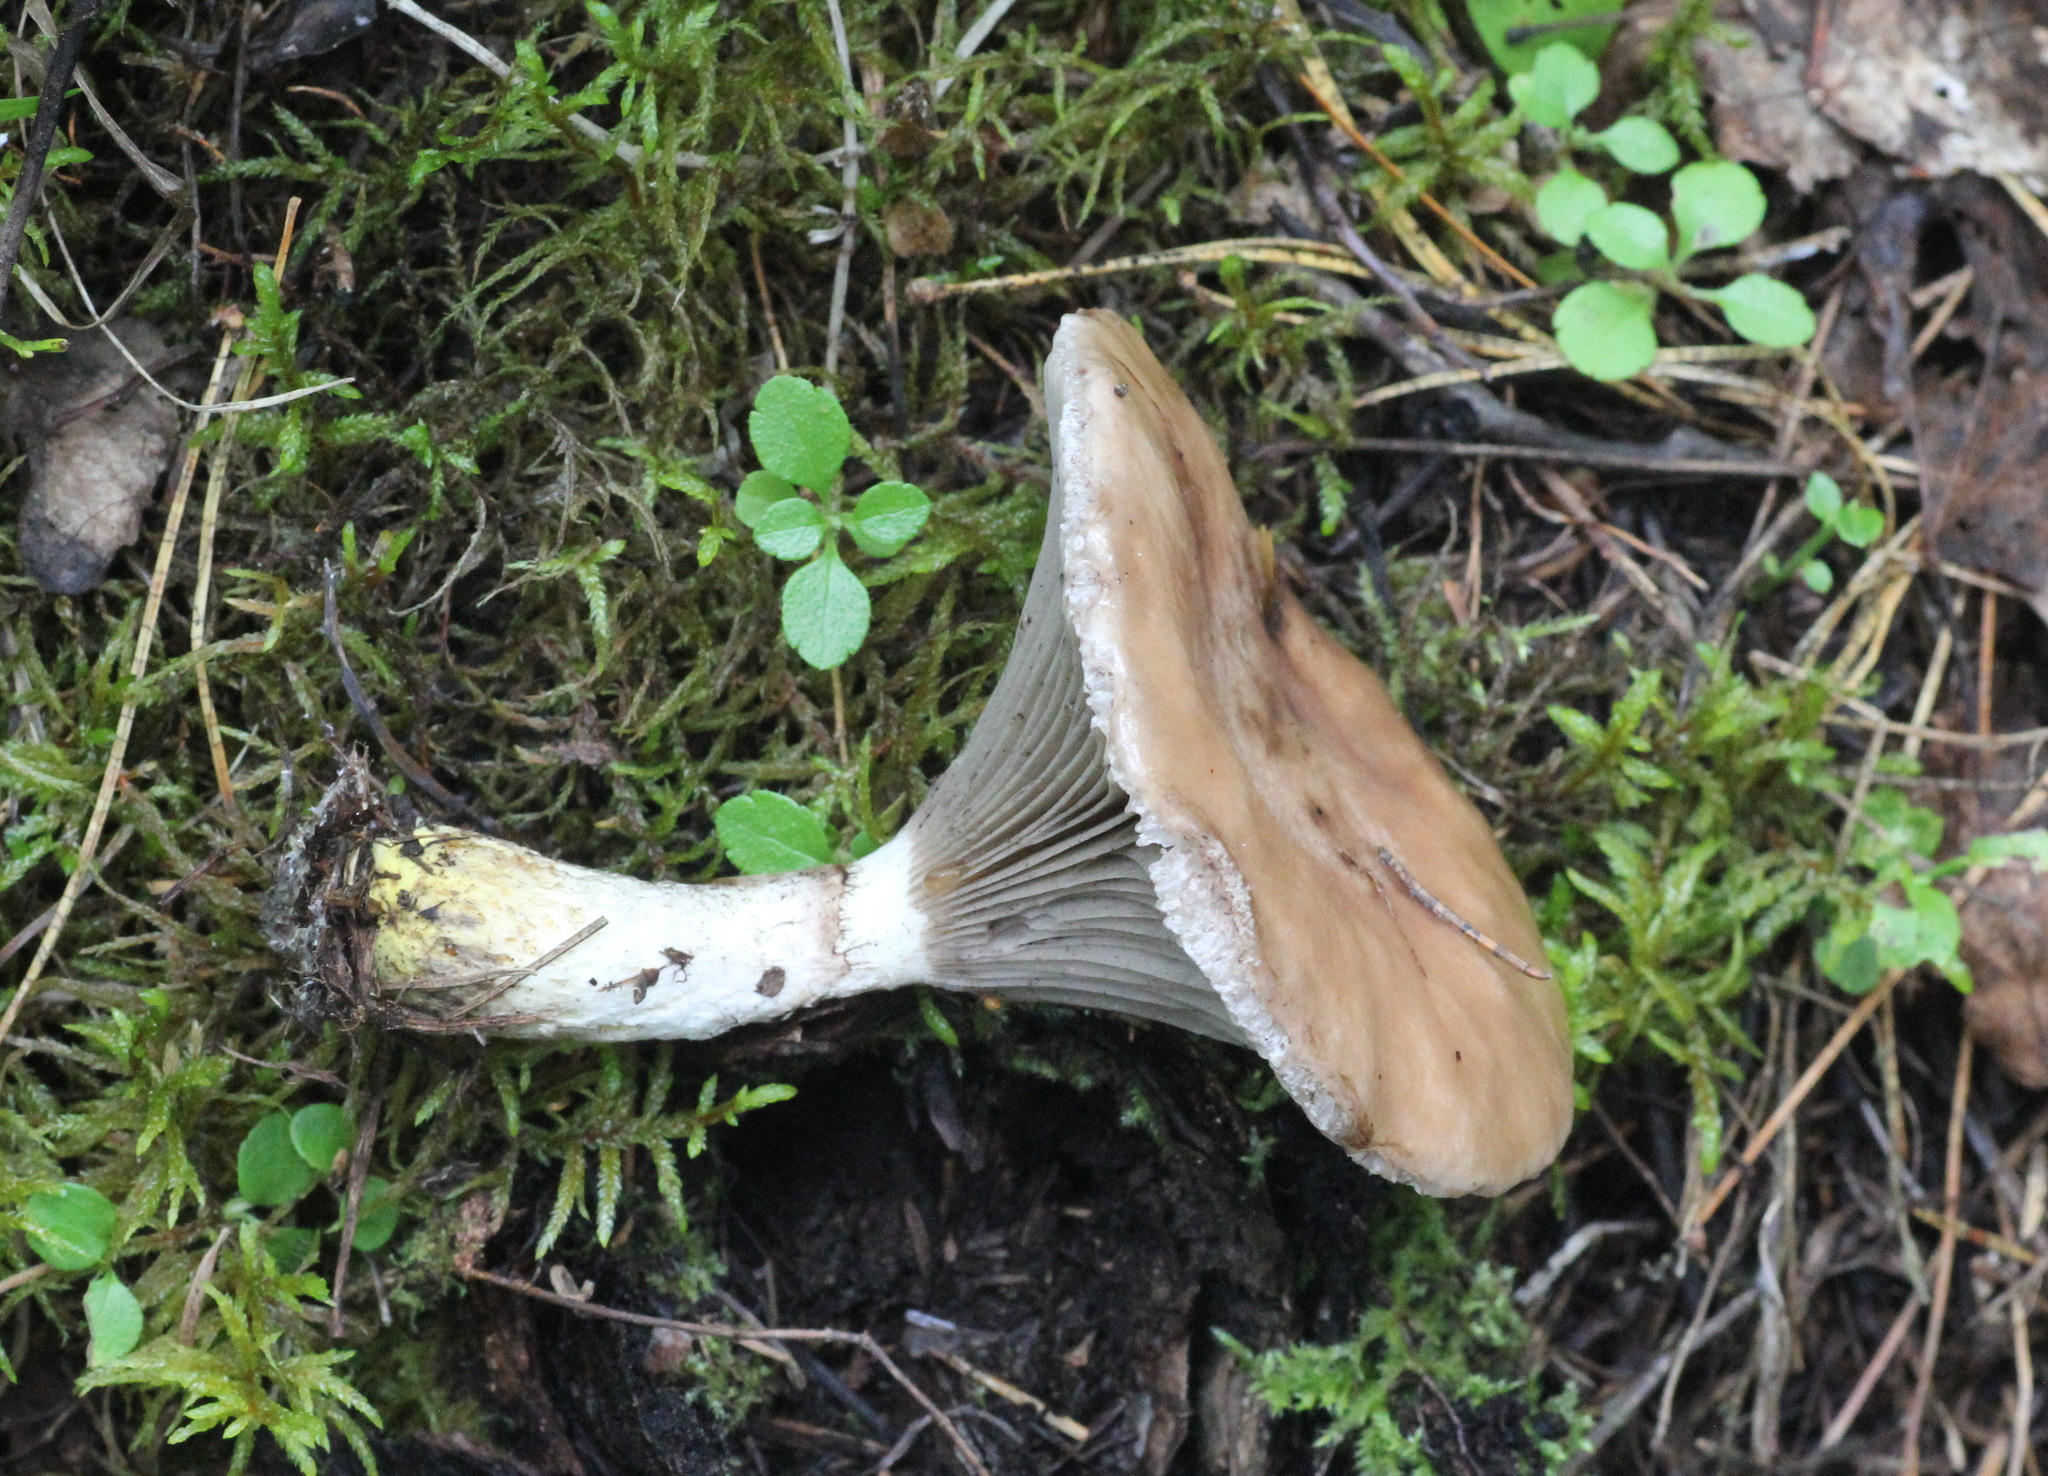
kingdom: Fungi
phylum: Basidiomycota
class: Agaricomycetes
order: Boletales
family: Gomphidiaceae
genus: Gomphidius
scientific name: Gomphidius glutinosus
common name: Slimy spike
